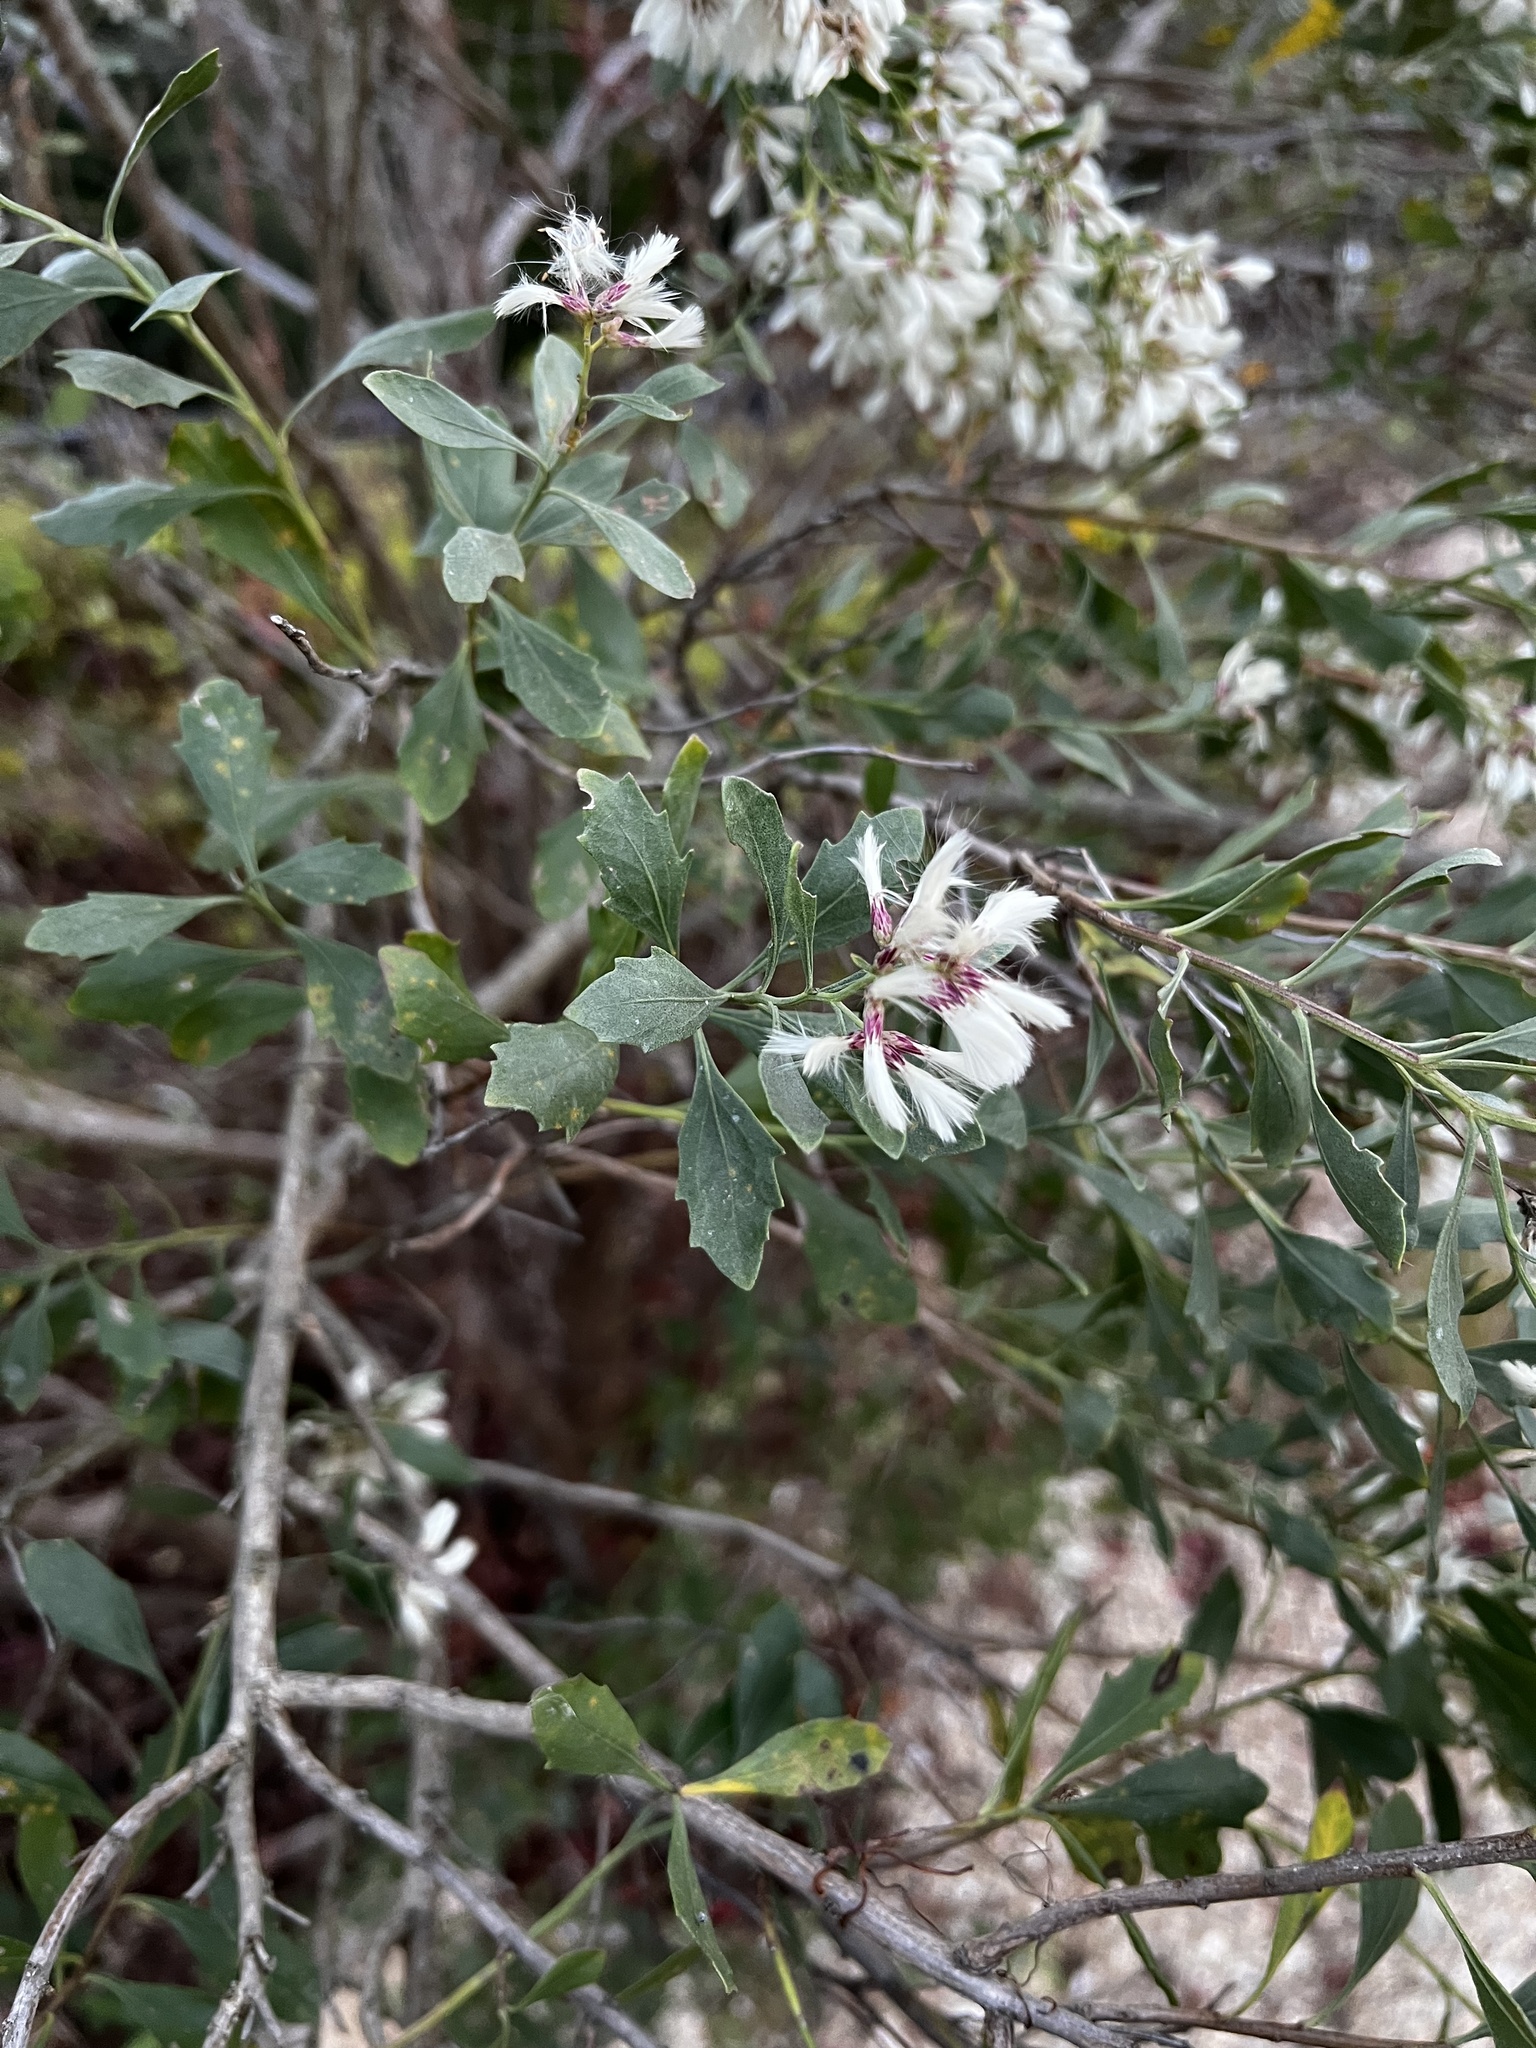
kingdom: Plantae
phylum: Tracheophyta
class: Magnoliopsida
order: Asterales
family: Asteraceae
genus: Baccharis
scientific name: Baccharis halimifolia
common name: Eastern baccharis
